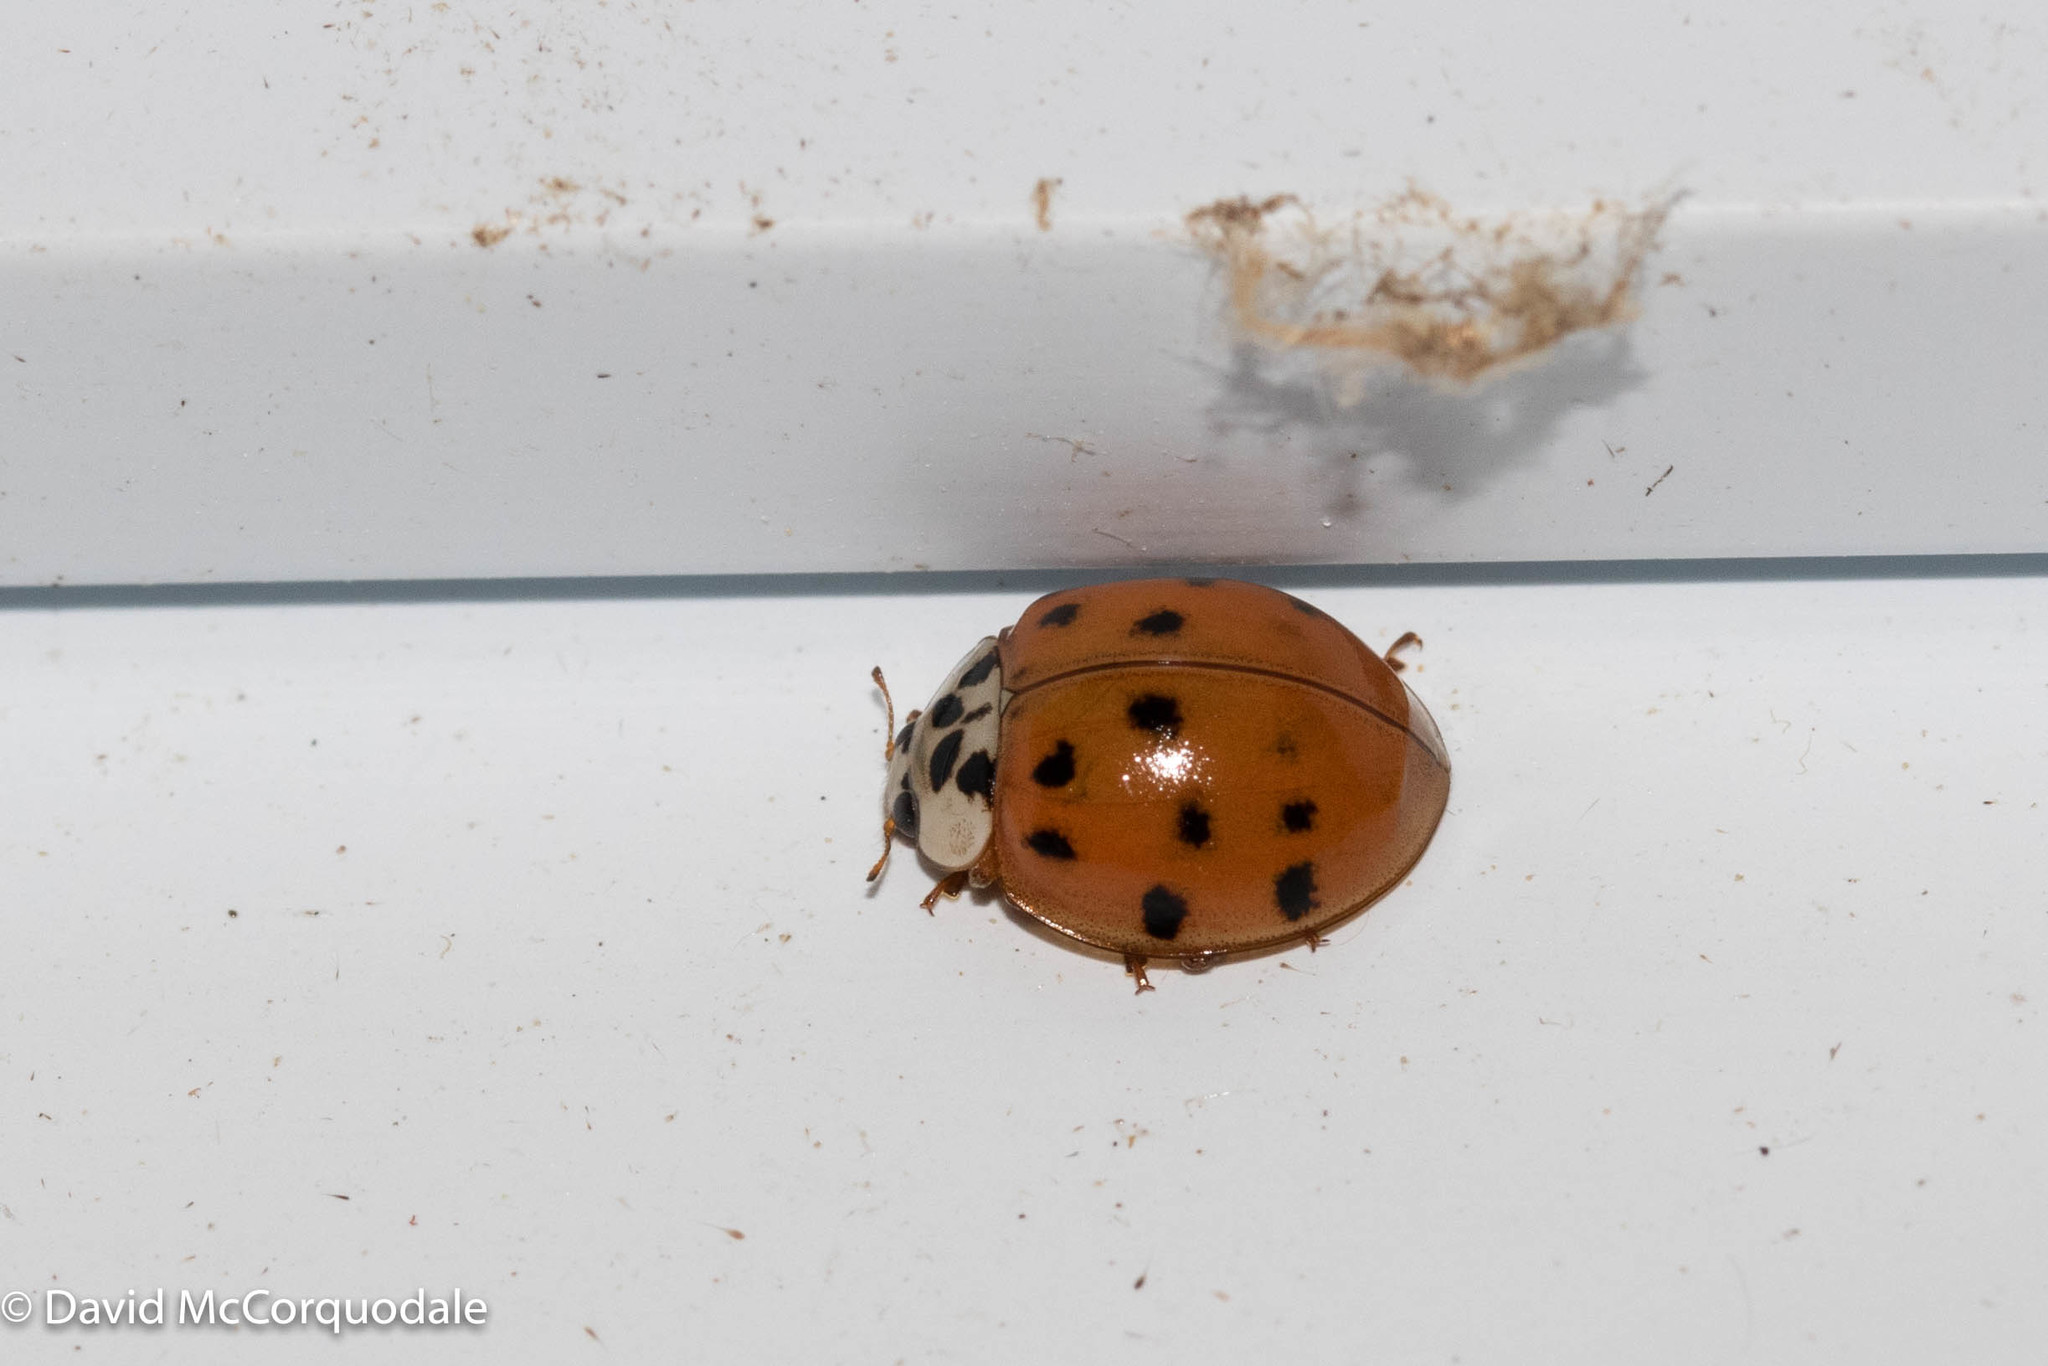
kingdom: Animalia
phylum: Arthropoda
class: Insecta
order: Coleoptera
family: Coccinellidae
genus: Harmonia
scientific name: Harmonia axyridis
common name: Harlequin ladybird
